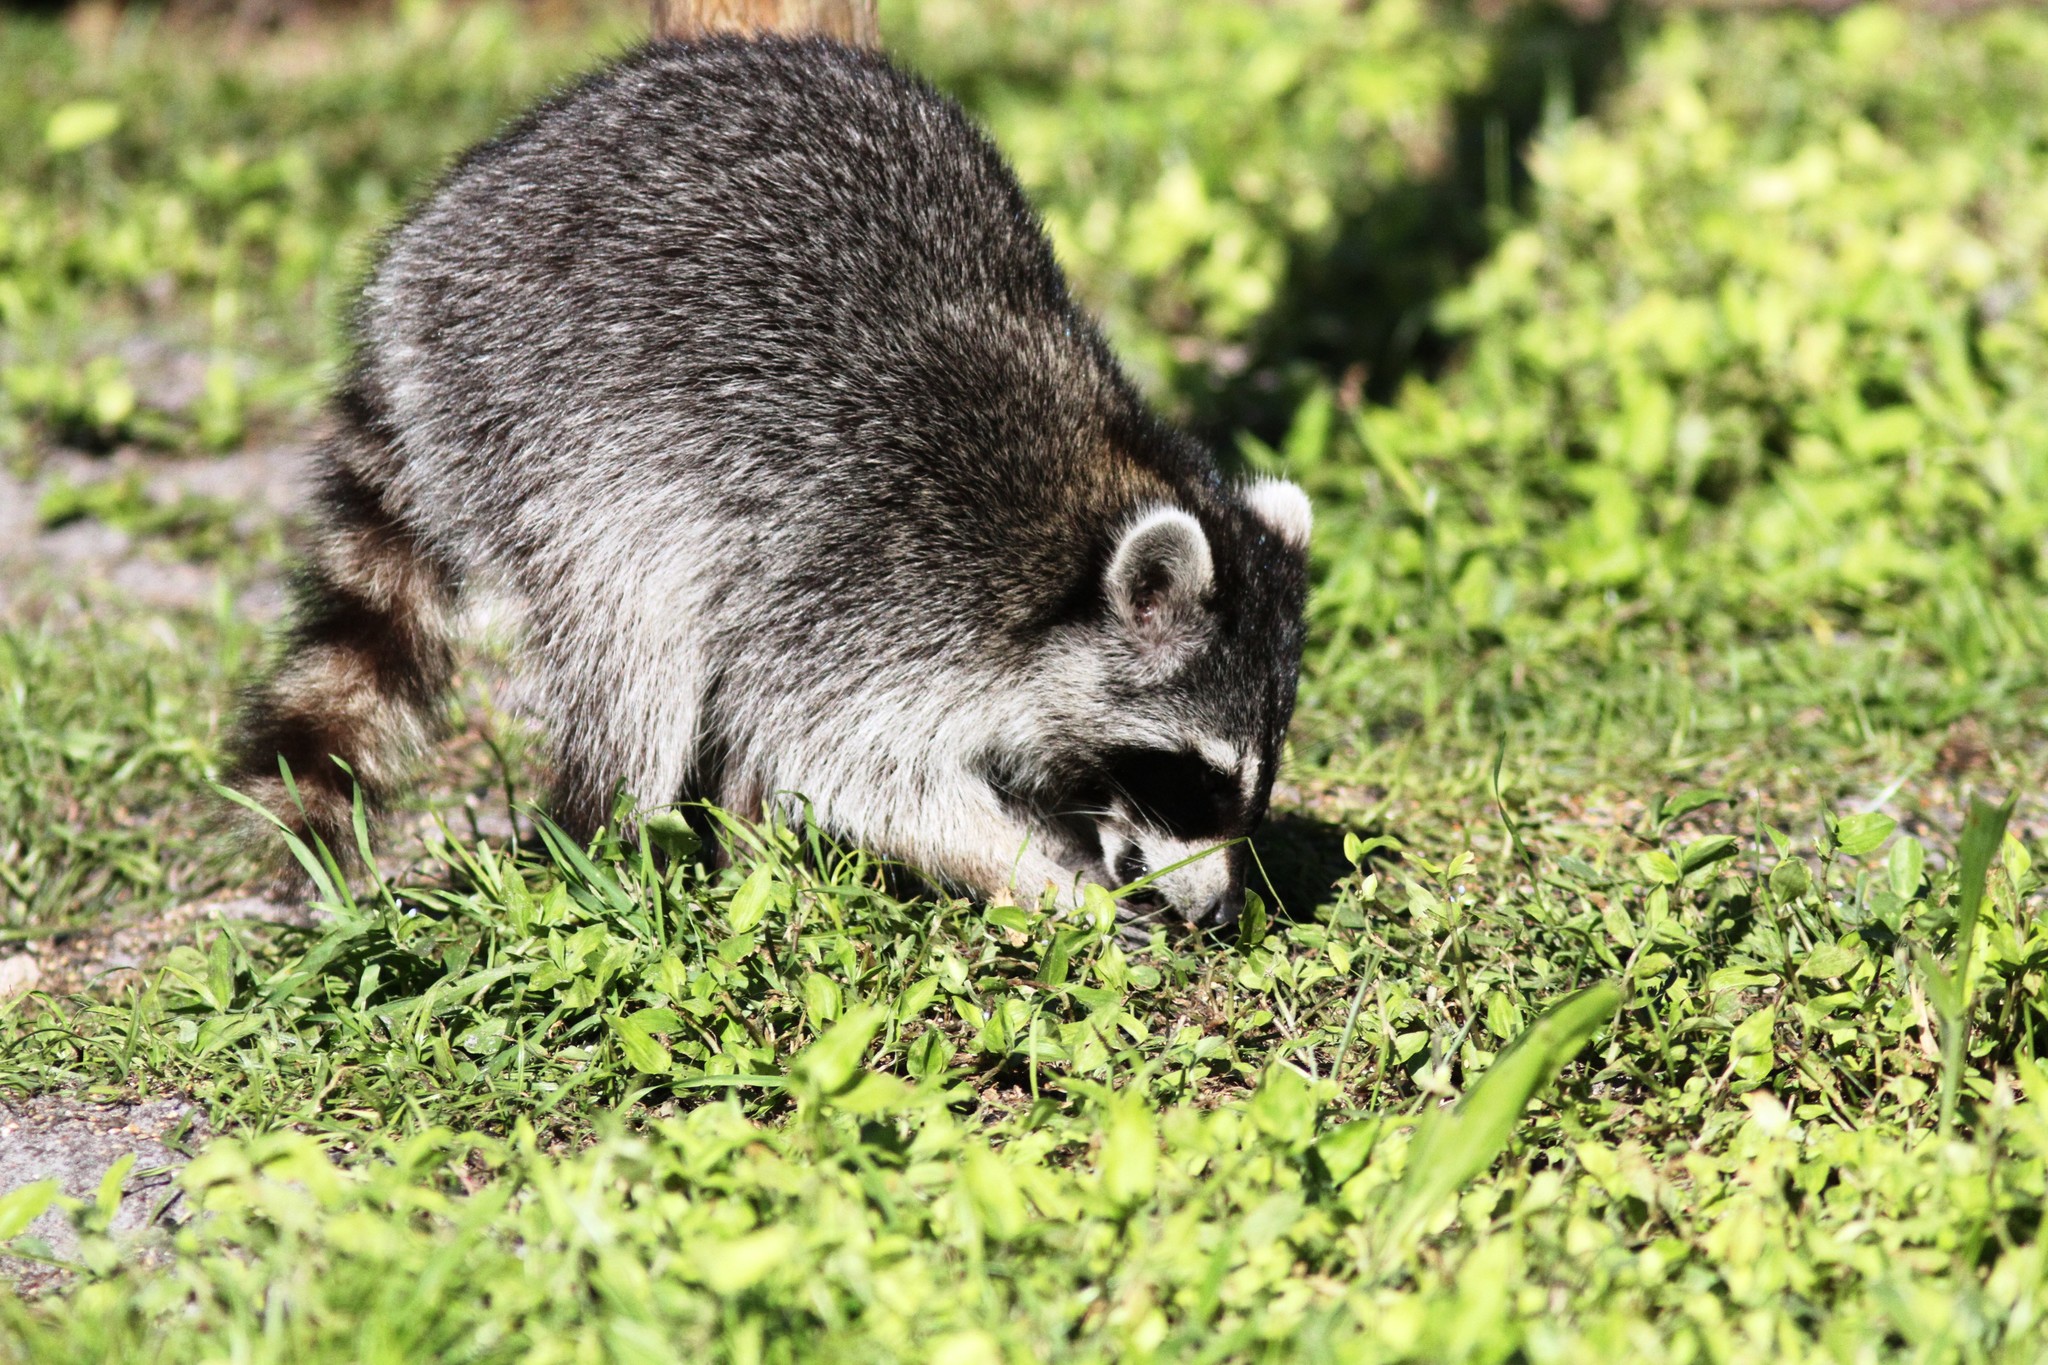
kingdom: Animalia
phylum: Chordata
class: Mammalia
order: Carnivora
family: Procyonidae
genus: Procyon
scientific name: Procyon lotor
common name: Raccoon
